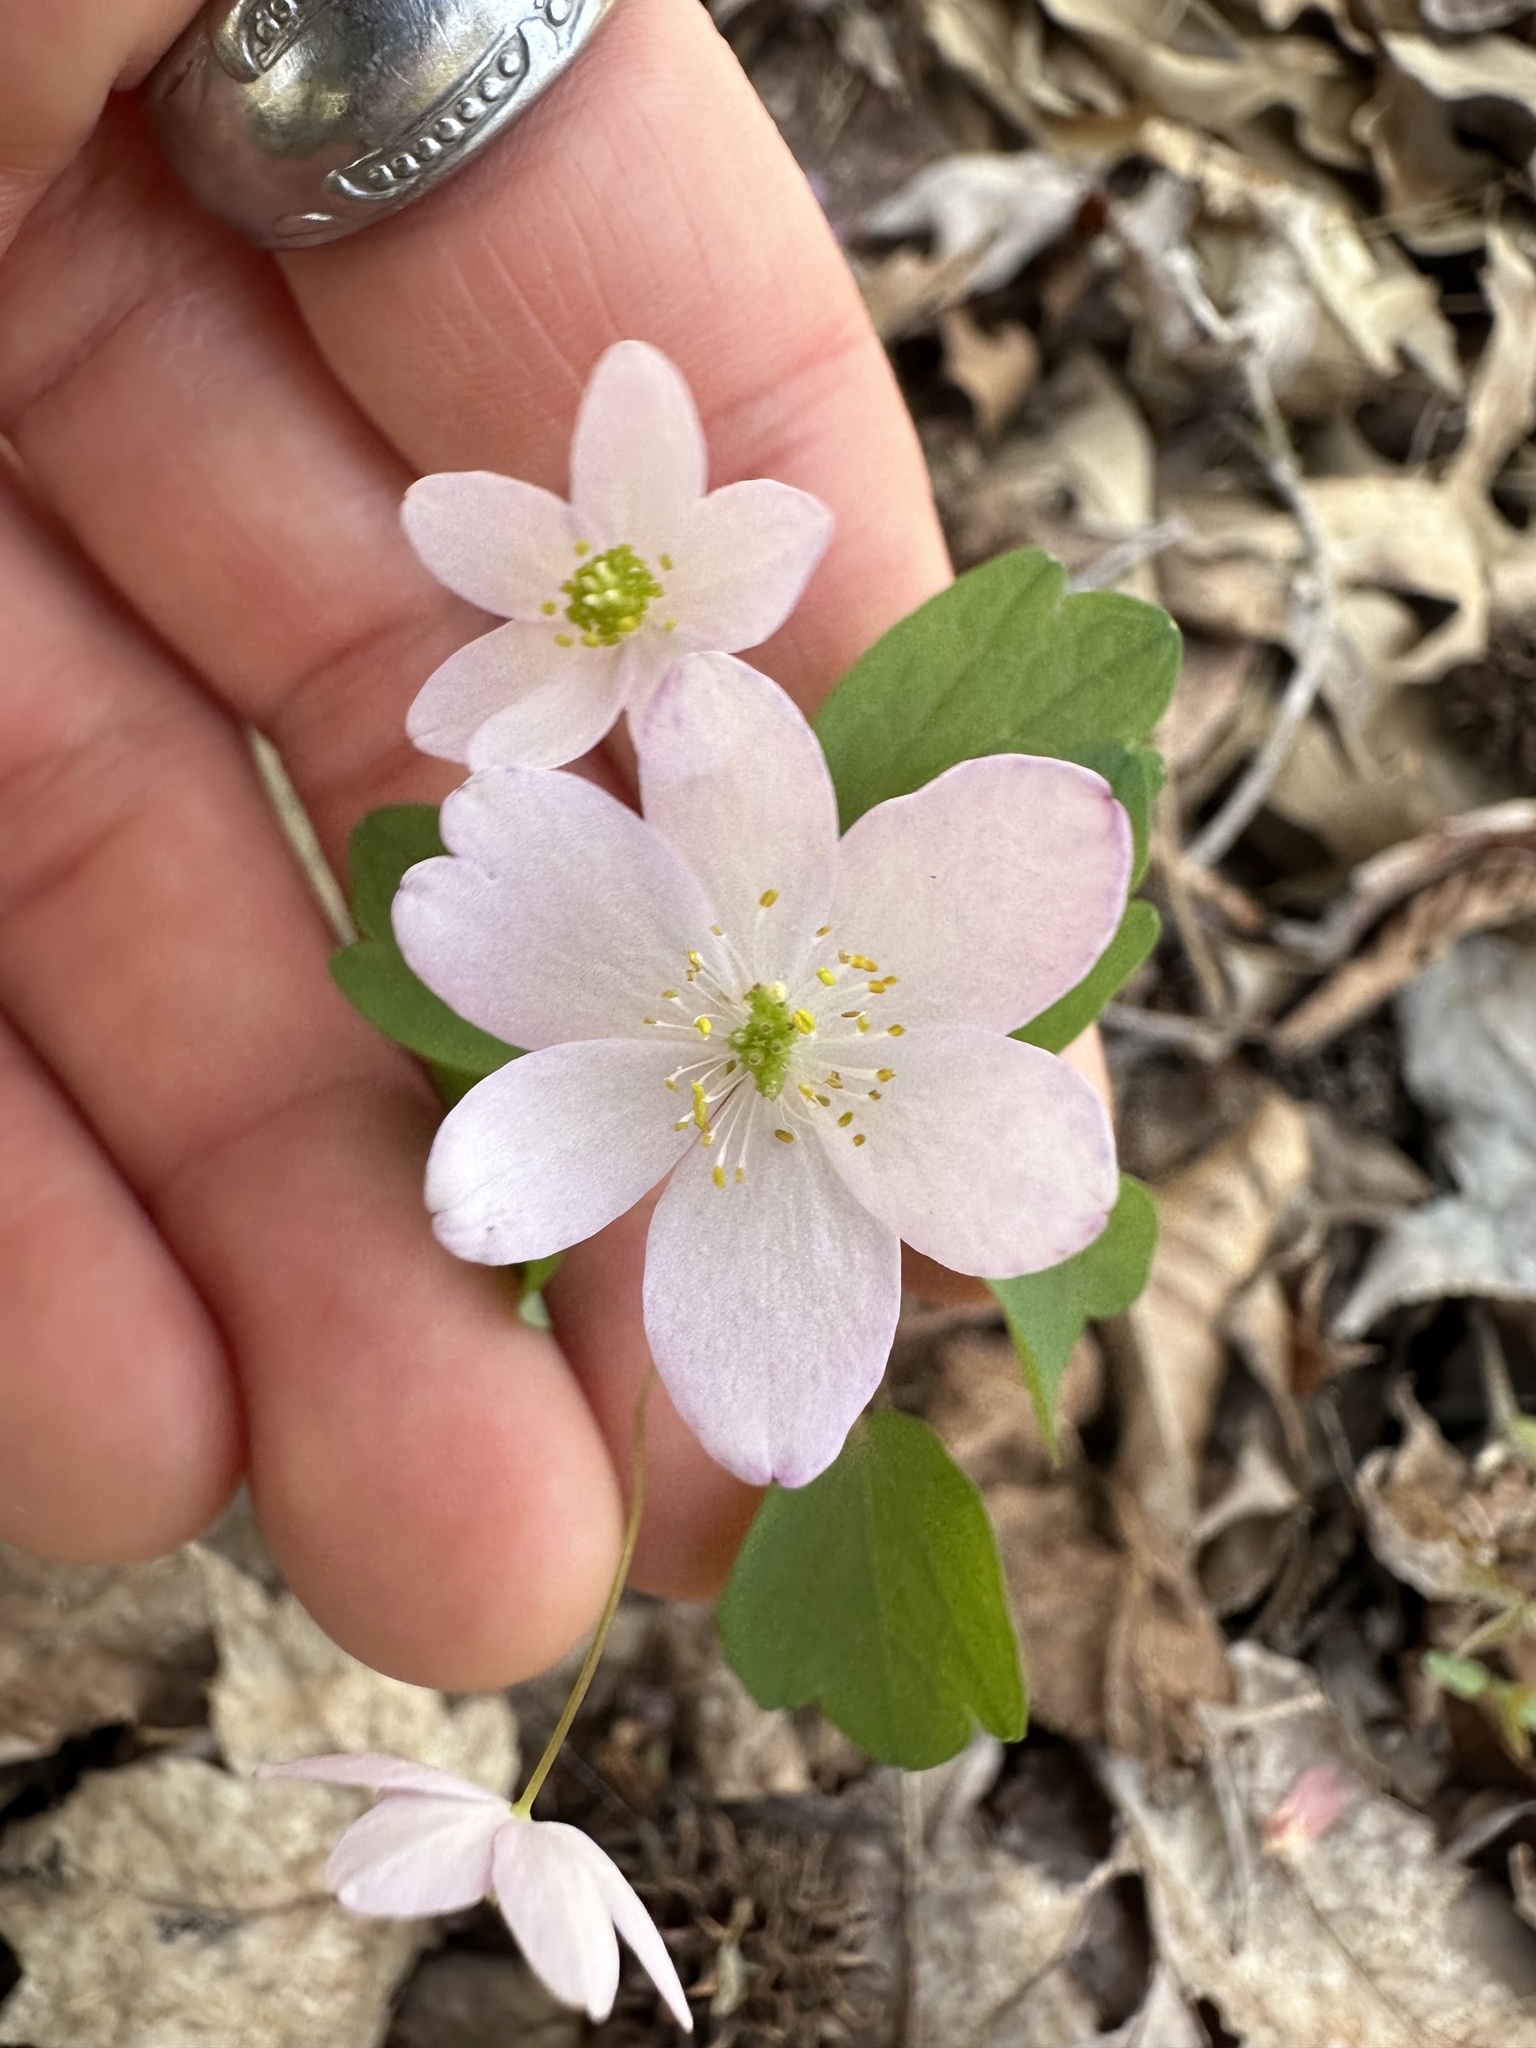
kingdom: Plantae
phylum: Tracheophyta
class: Magnoliopsida
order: Ranunculales
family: Ranunculaceae
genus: Thalictrum
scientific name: Thalictrum thalictroides
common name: Rue-anemone
